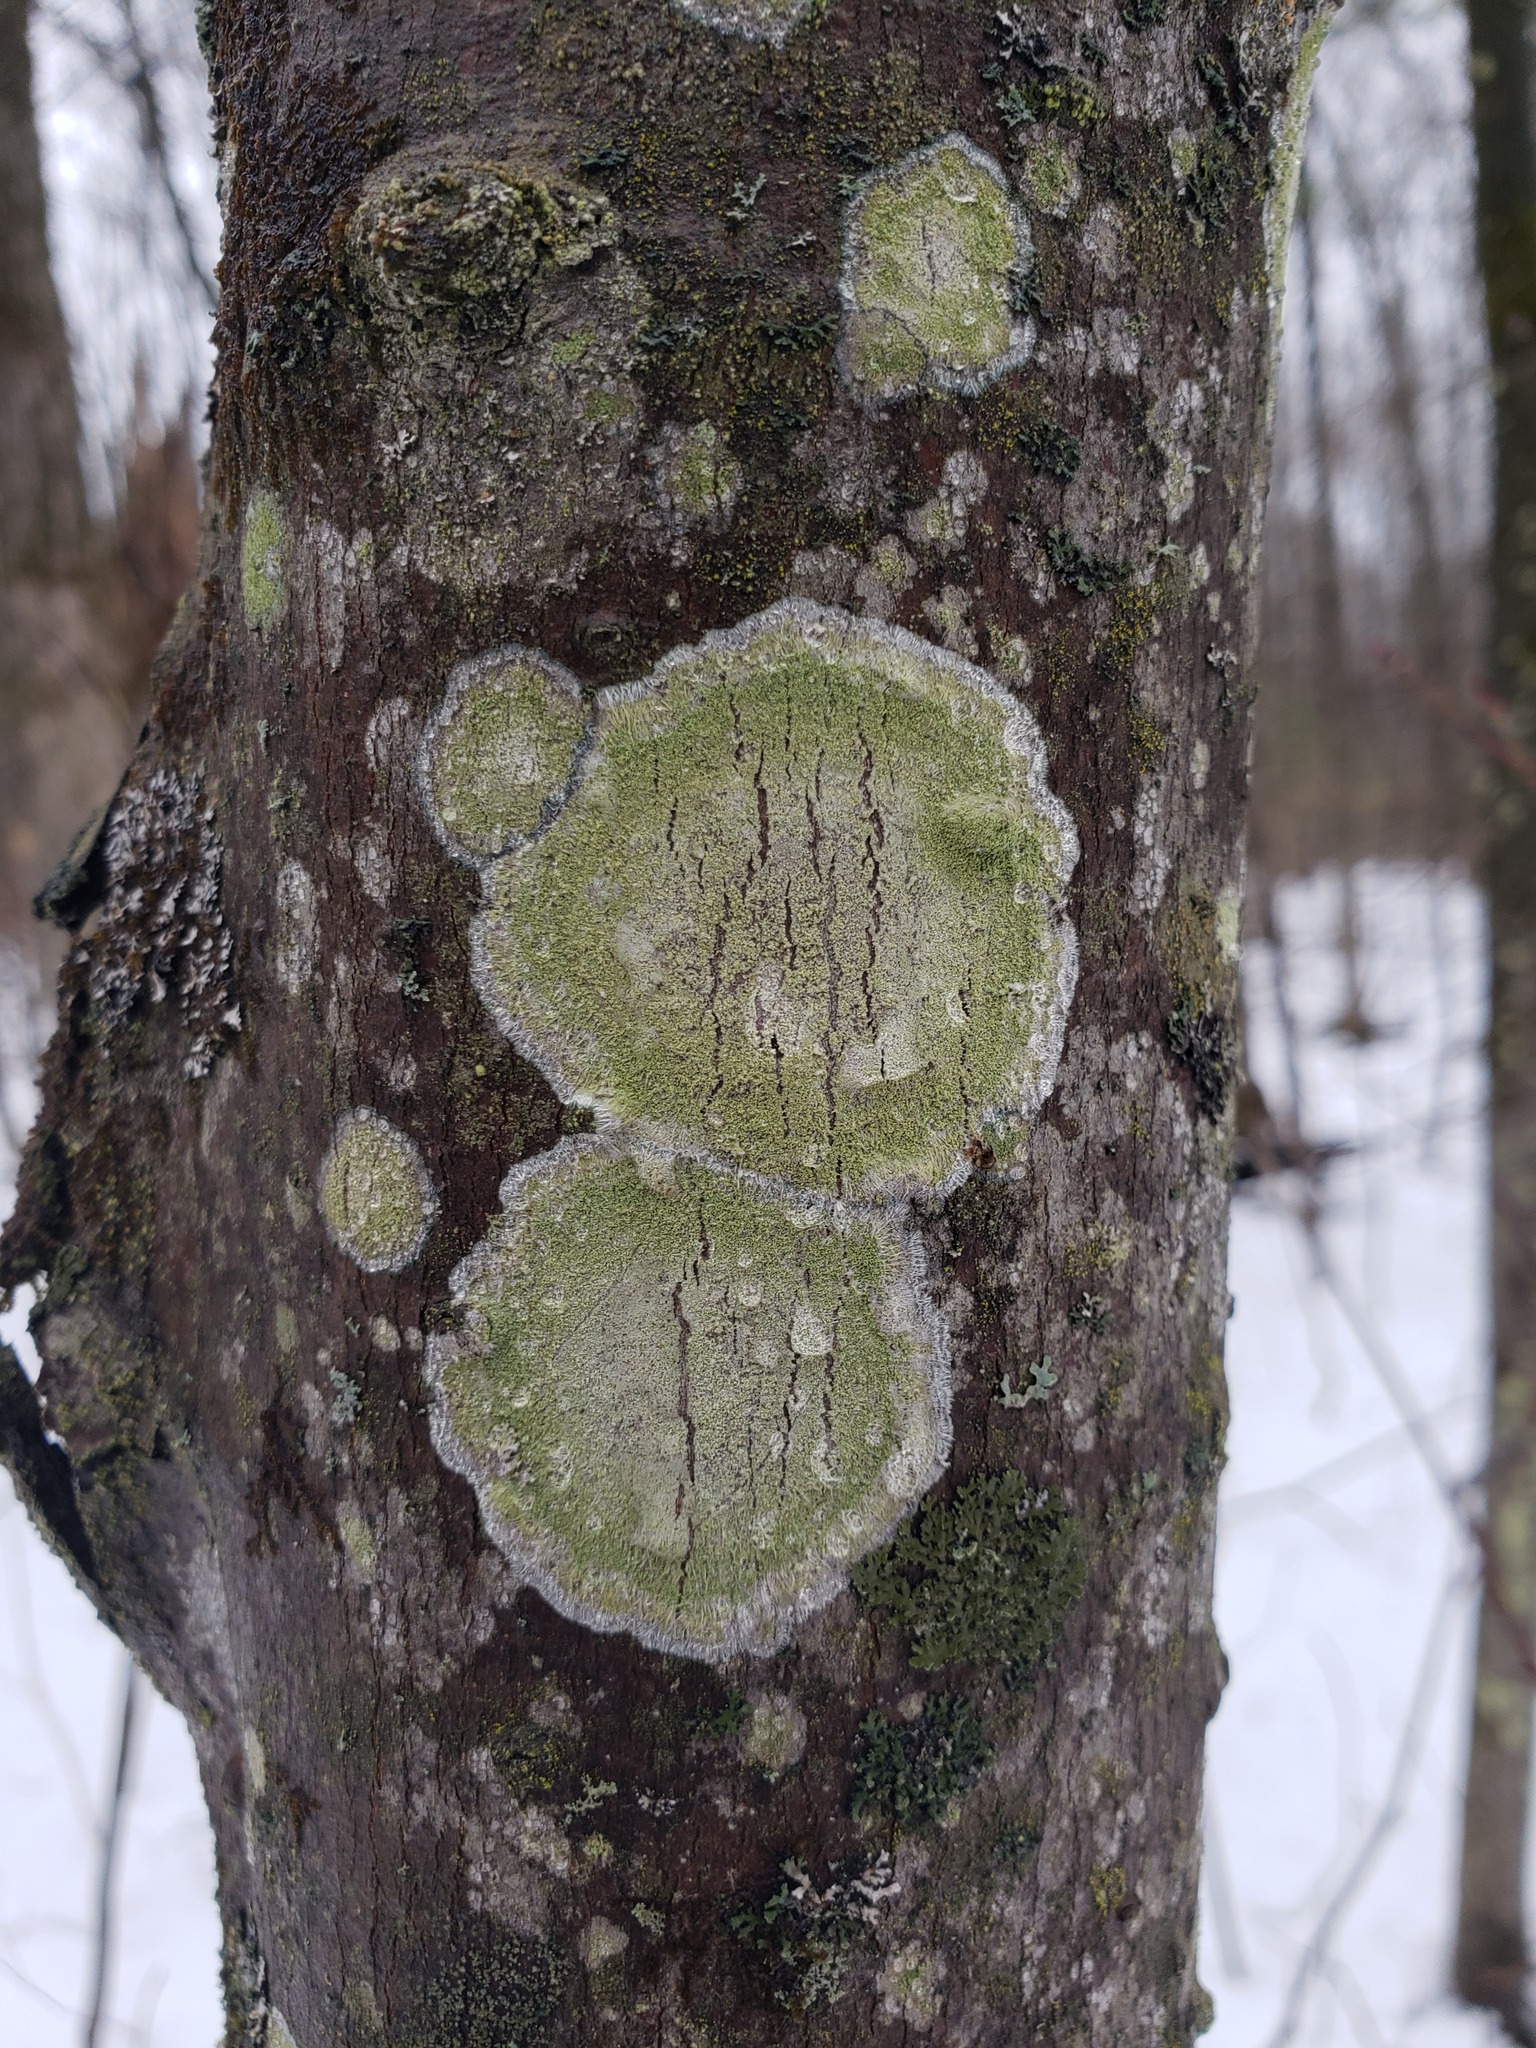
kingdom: Fungi
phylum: Ascomycota
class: Lecanoromycetes
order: Pertusariales
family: Pertusariaceae
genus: Verseghya
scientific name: Verseghya thysanophora
